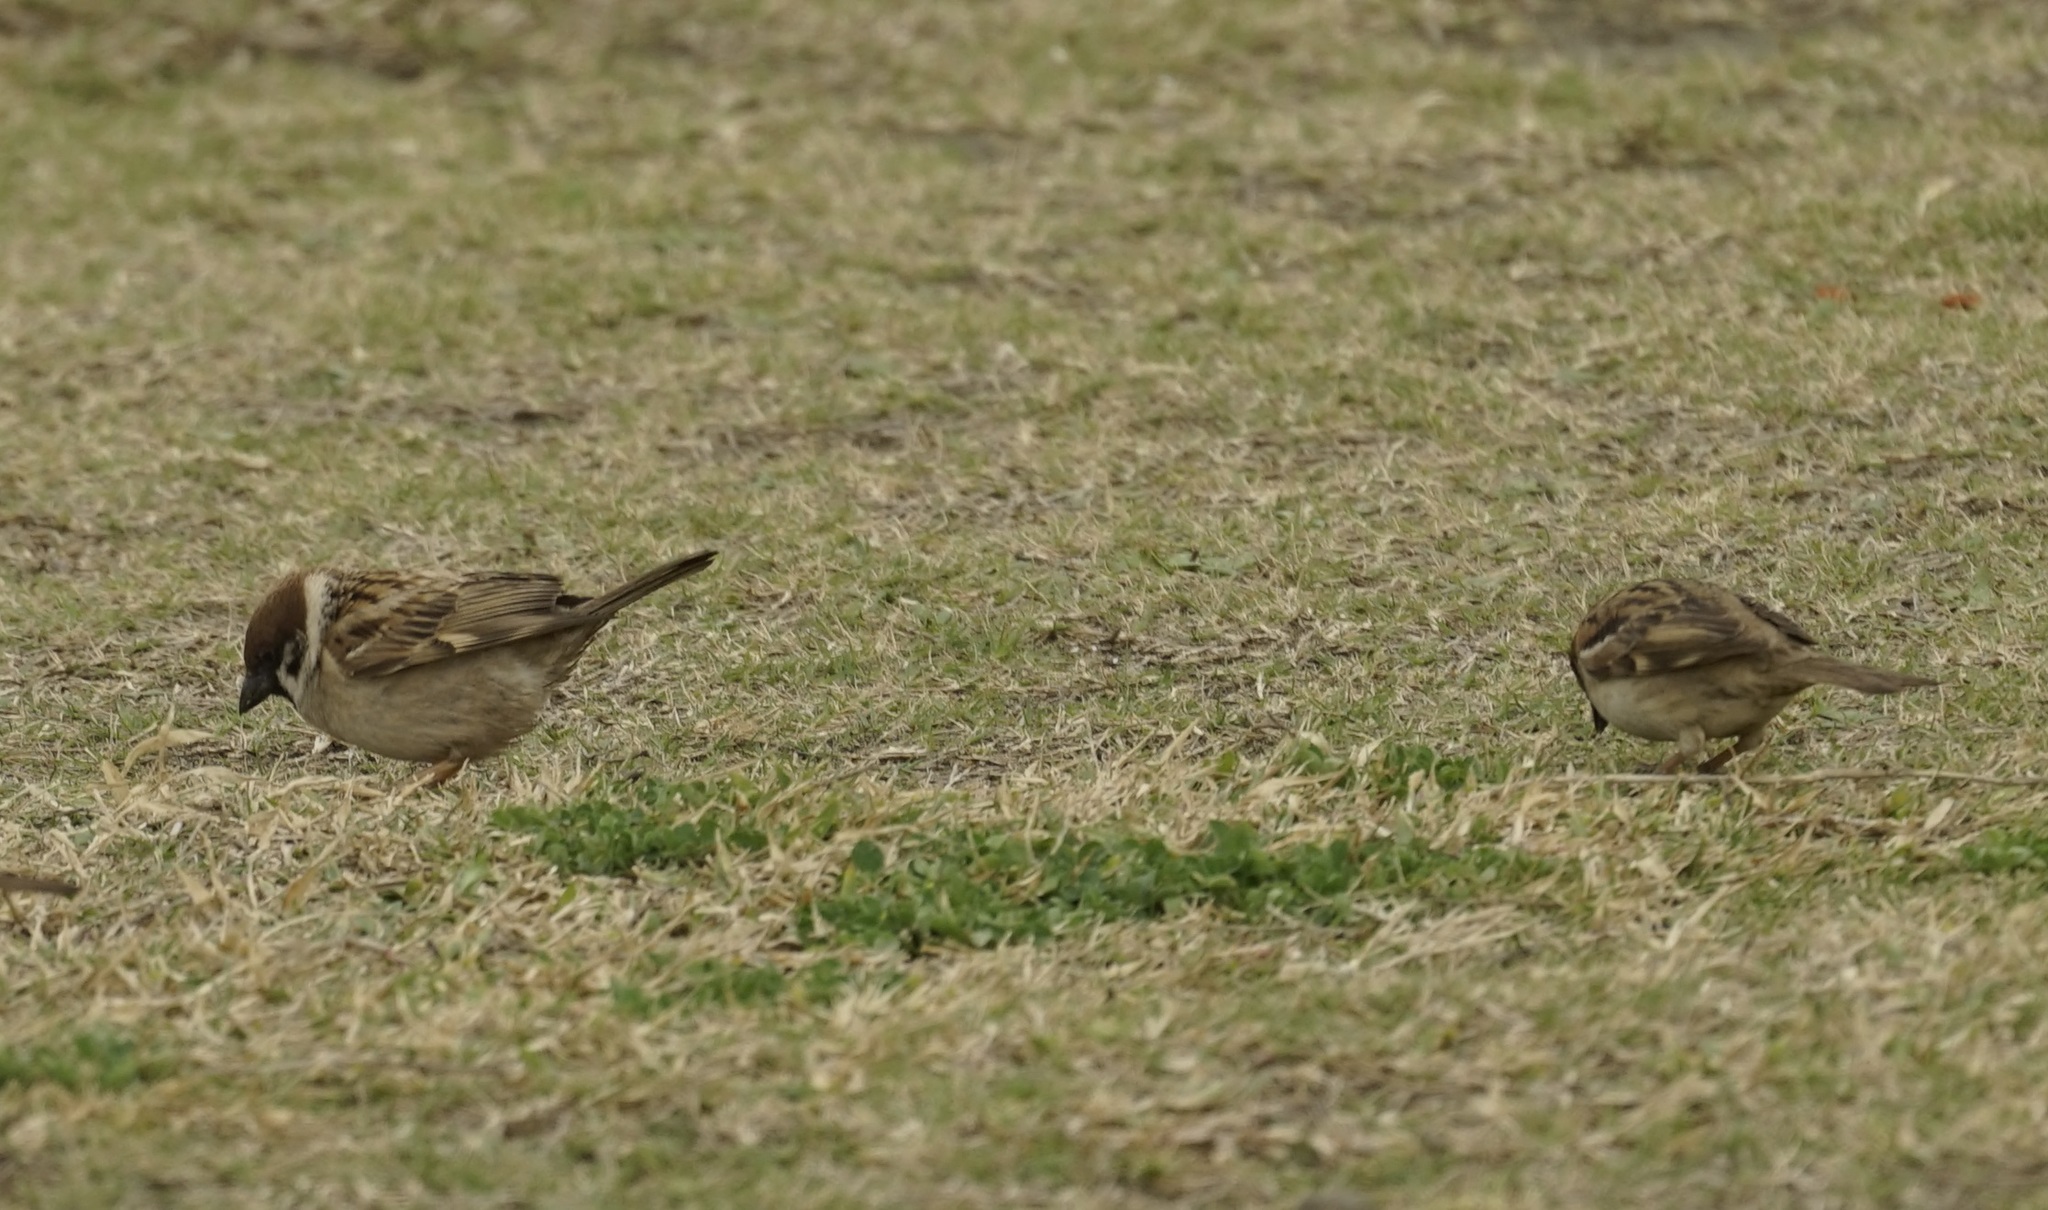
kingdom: Animalia
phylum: Chordata
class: Aves
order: Passeriformes
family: Passeridae
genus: Passer
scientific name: Passer montanus
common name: Eurasian tree sparrow
